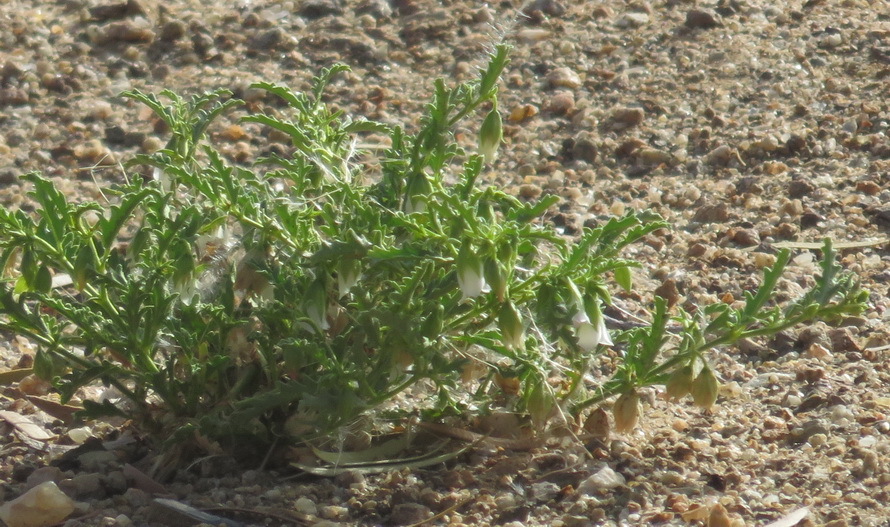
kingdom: Plantae
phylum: Tracheophyta
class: Magnoliopsida
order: Malvales
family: Malvaceae
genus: Hermannia
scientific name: Hermannia leucantha
